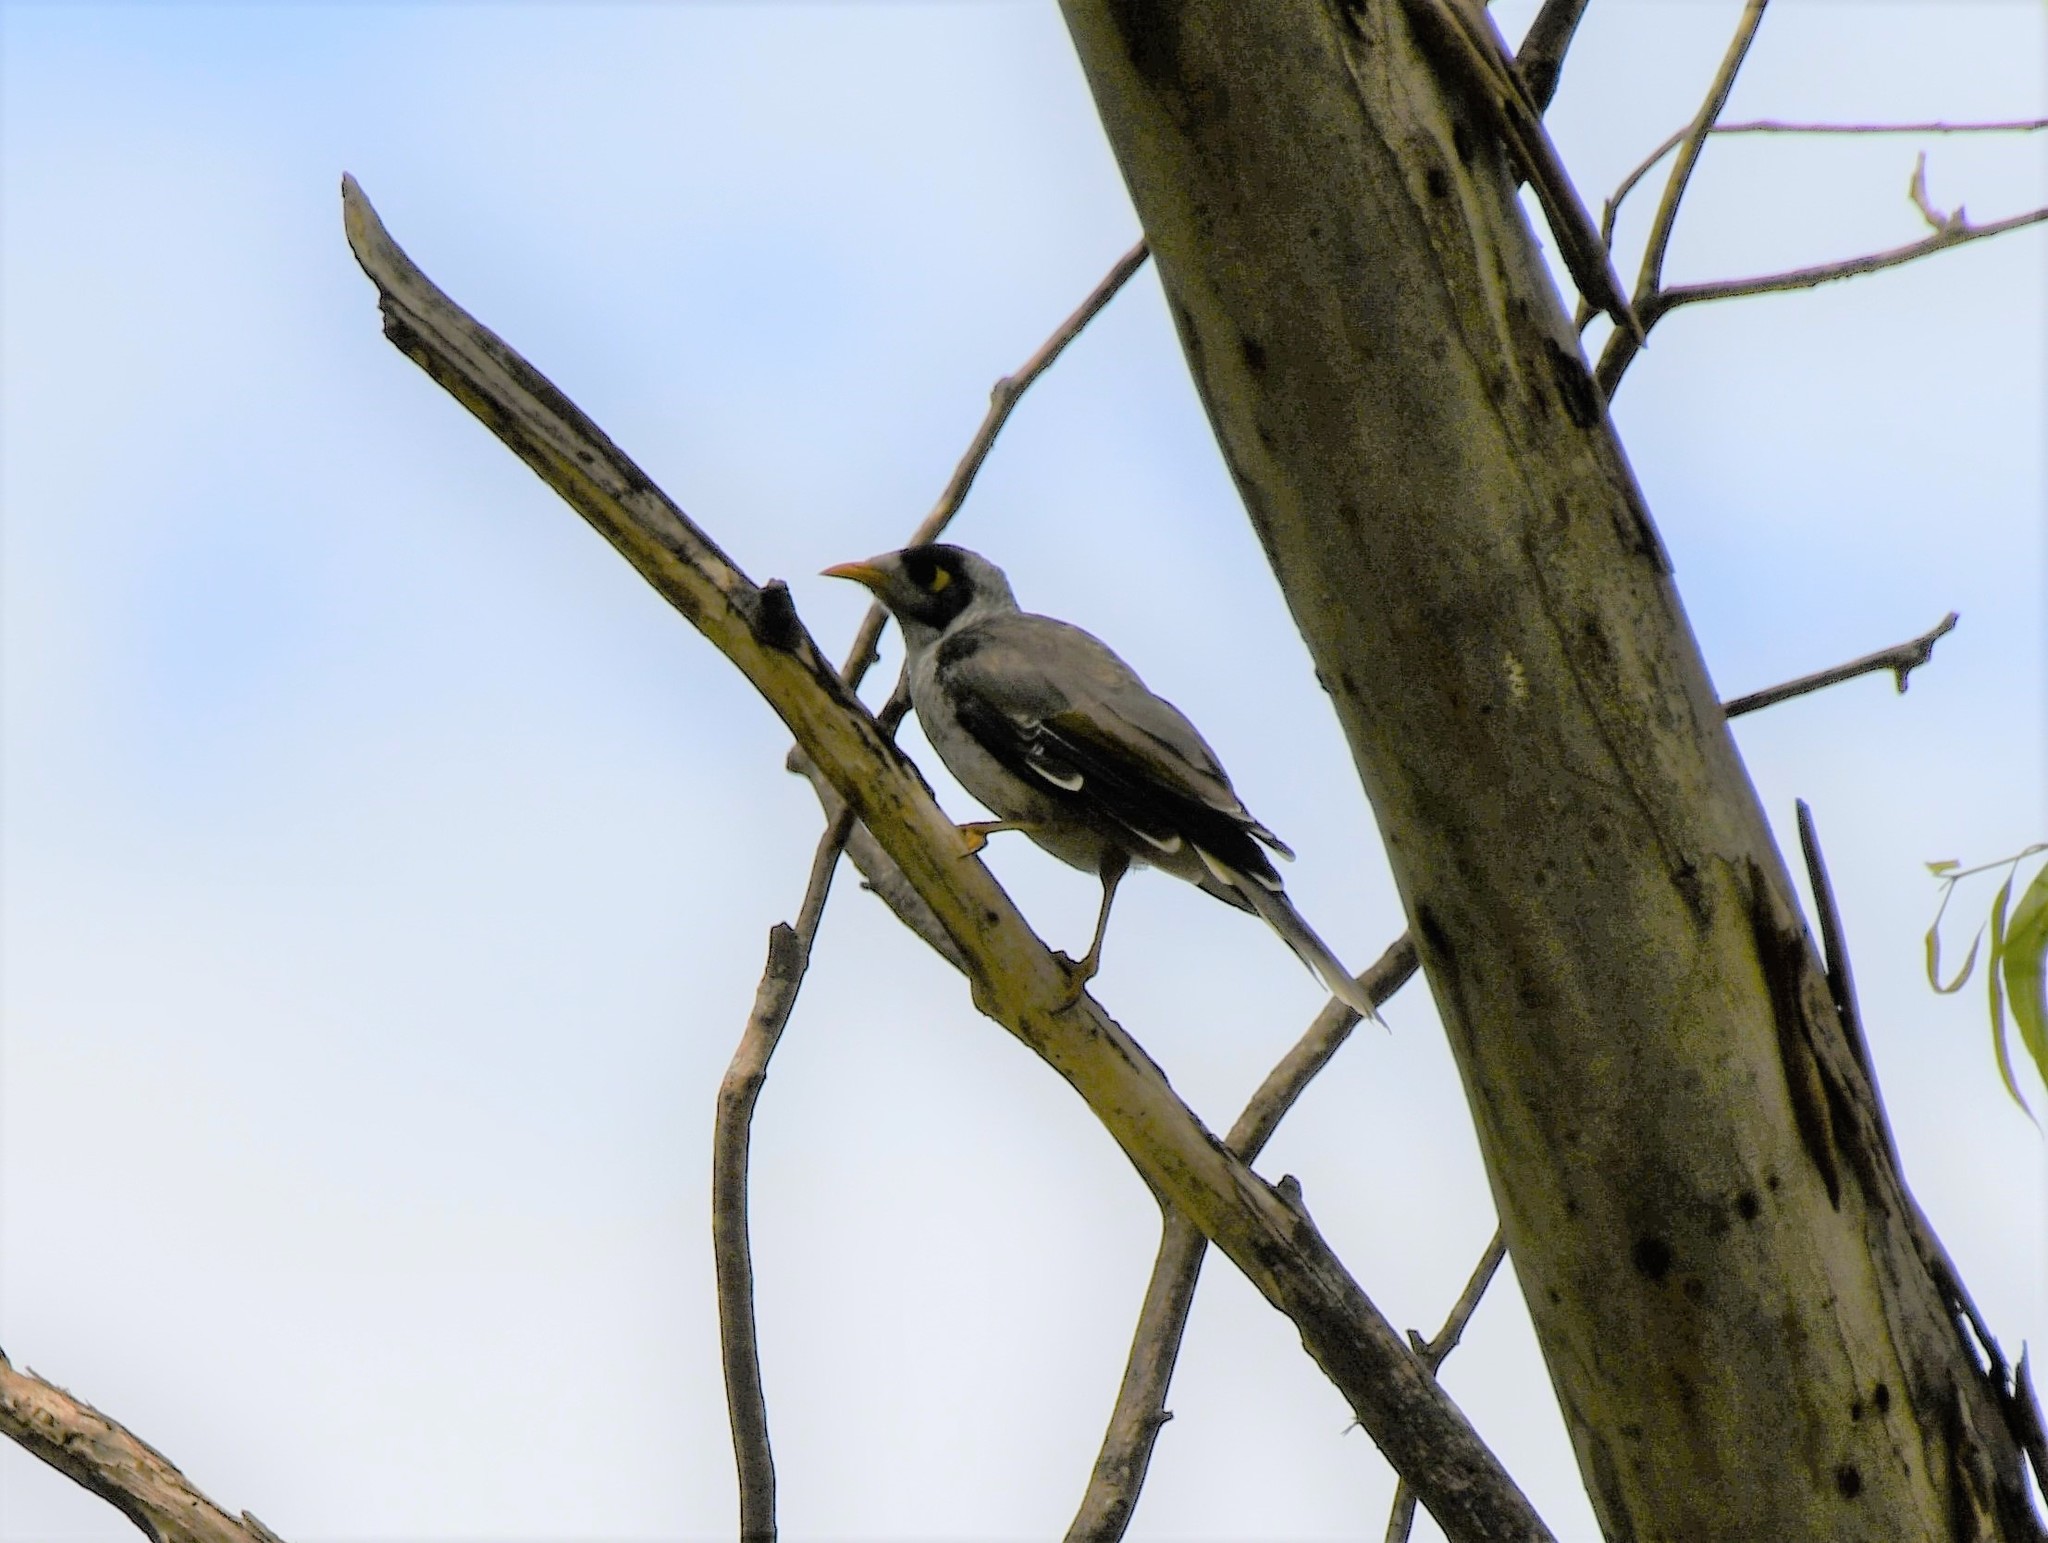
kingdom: Animalia
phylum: Chordata
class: Aves
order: Passeriformes
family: Meliphagidae
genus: Manorina
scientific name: Manorina melanocephala
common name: Noisy miner
